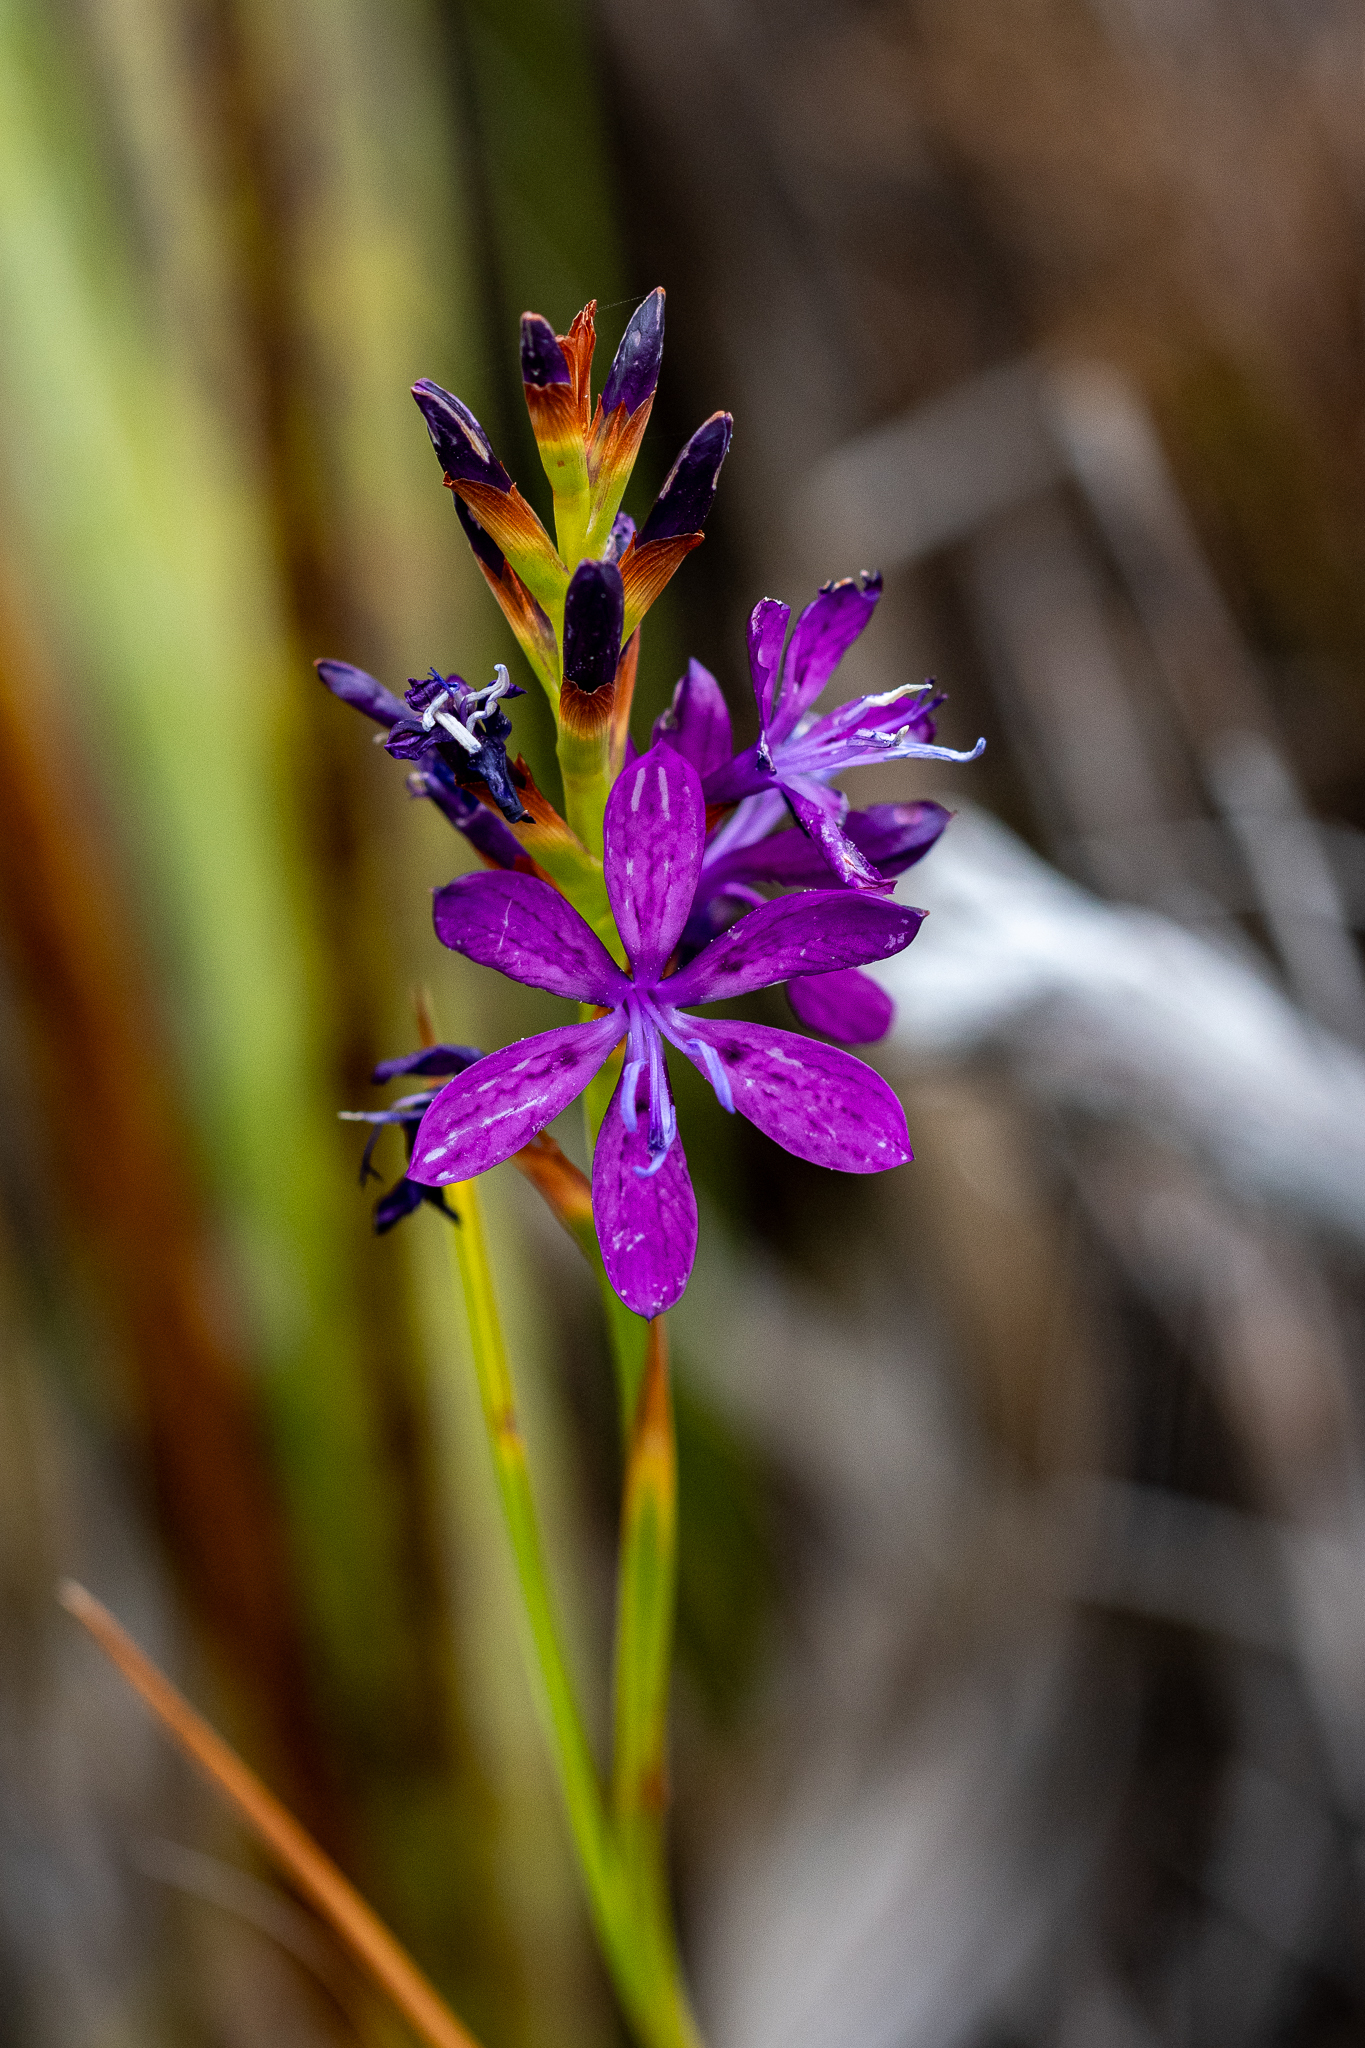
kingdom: Plantae
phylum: Tracheophyta
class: Liliopsida
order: Asparagales
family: Iridaceae
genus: Thereianthus
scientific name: Thereianthus bracteolatus
